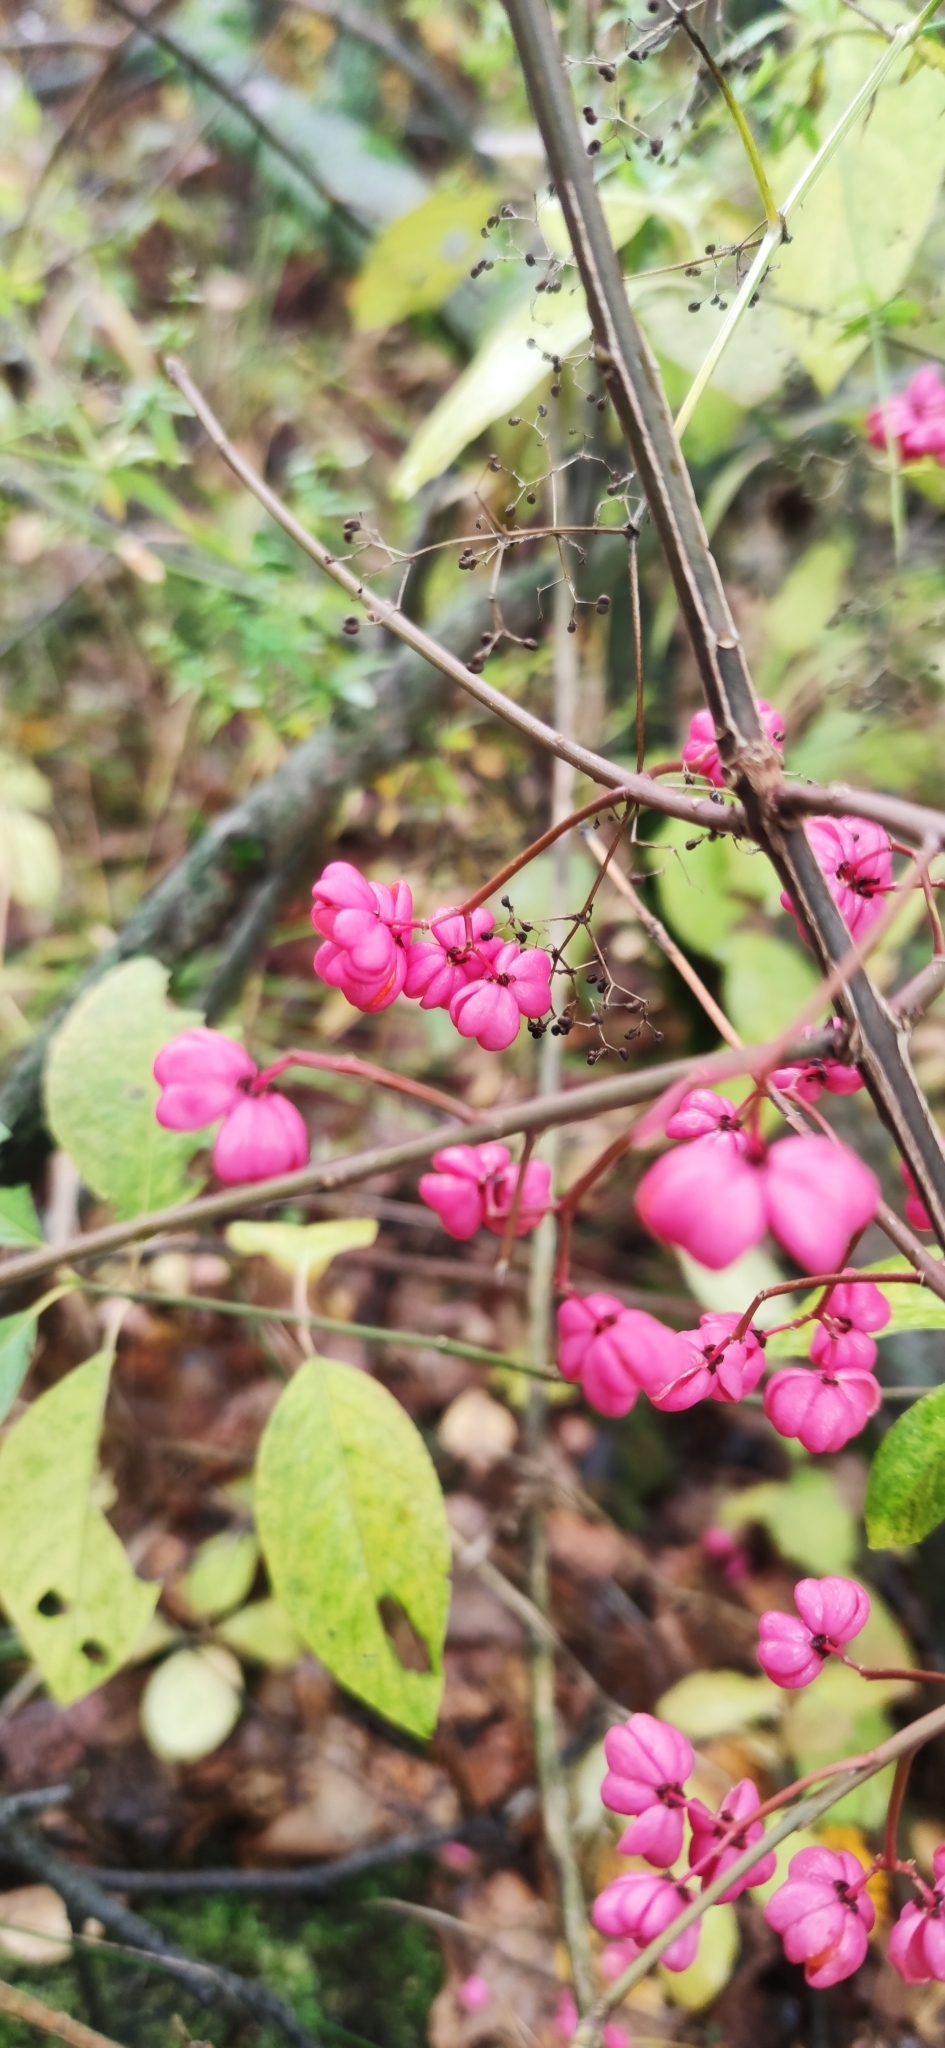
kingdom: Plantae
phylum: Tracheophyta
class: Magnoliopsida
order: Celastrales
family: Celastraceae
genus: Euonymus
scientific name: Euonymus europaeus
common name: Spindle
